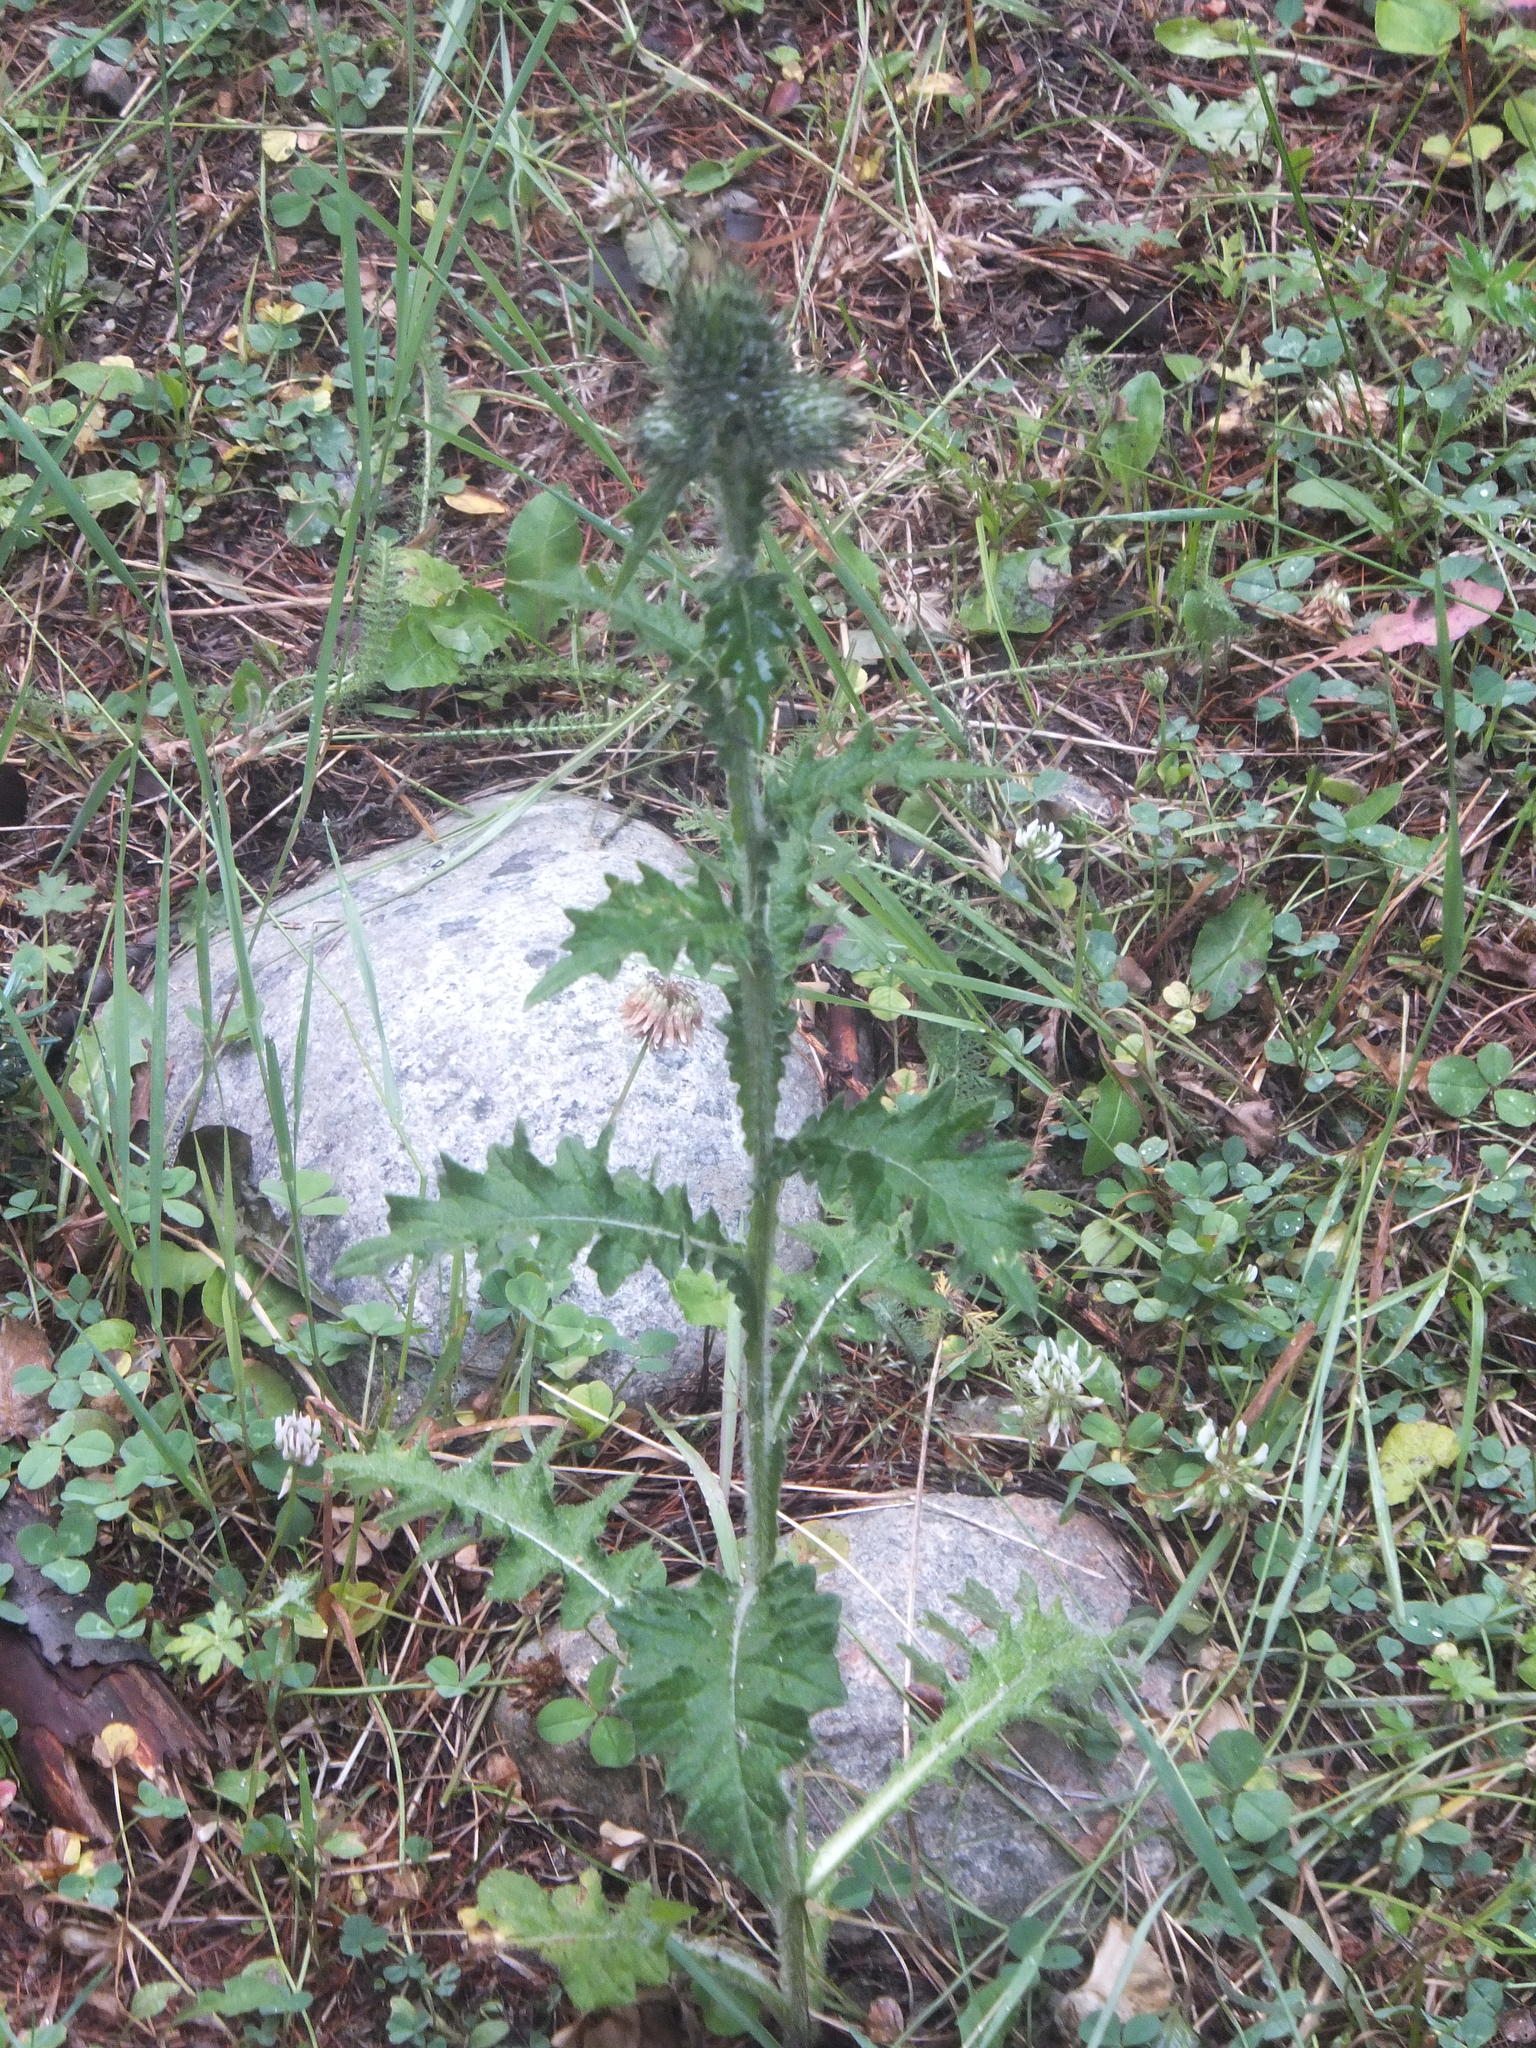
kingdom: Plantae
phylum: Tracheophyta
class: Magnoliopsida
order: Asterales
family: Asteraceae
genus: Cirsium
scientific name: Cirsium vulgare
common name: Bull thistle
